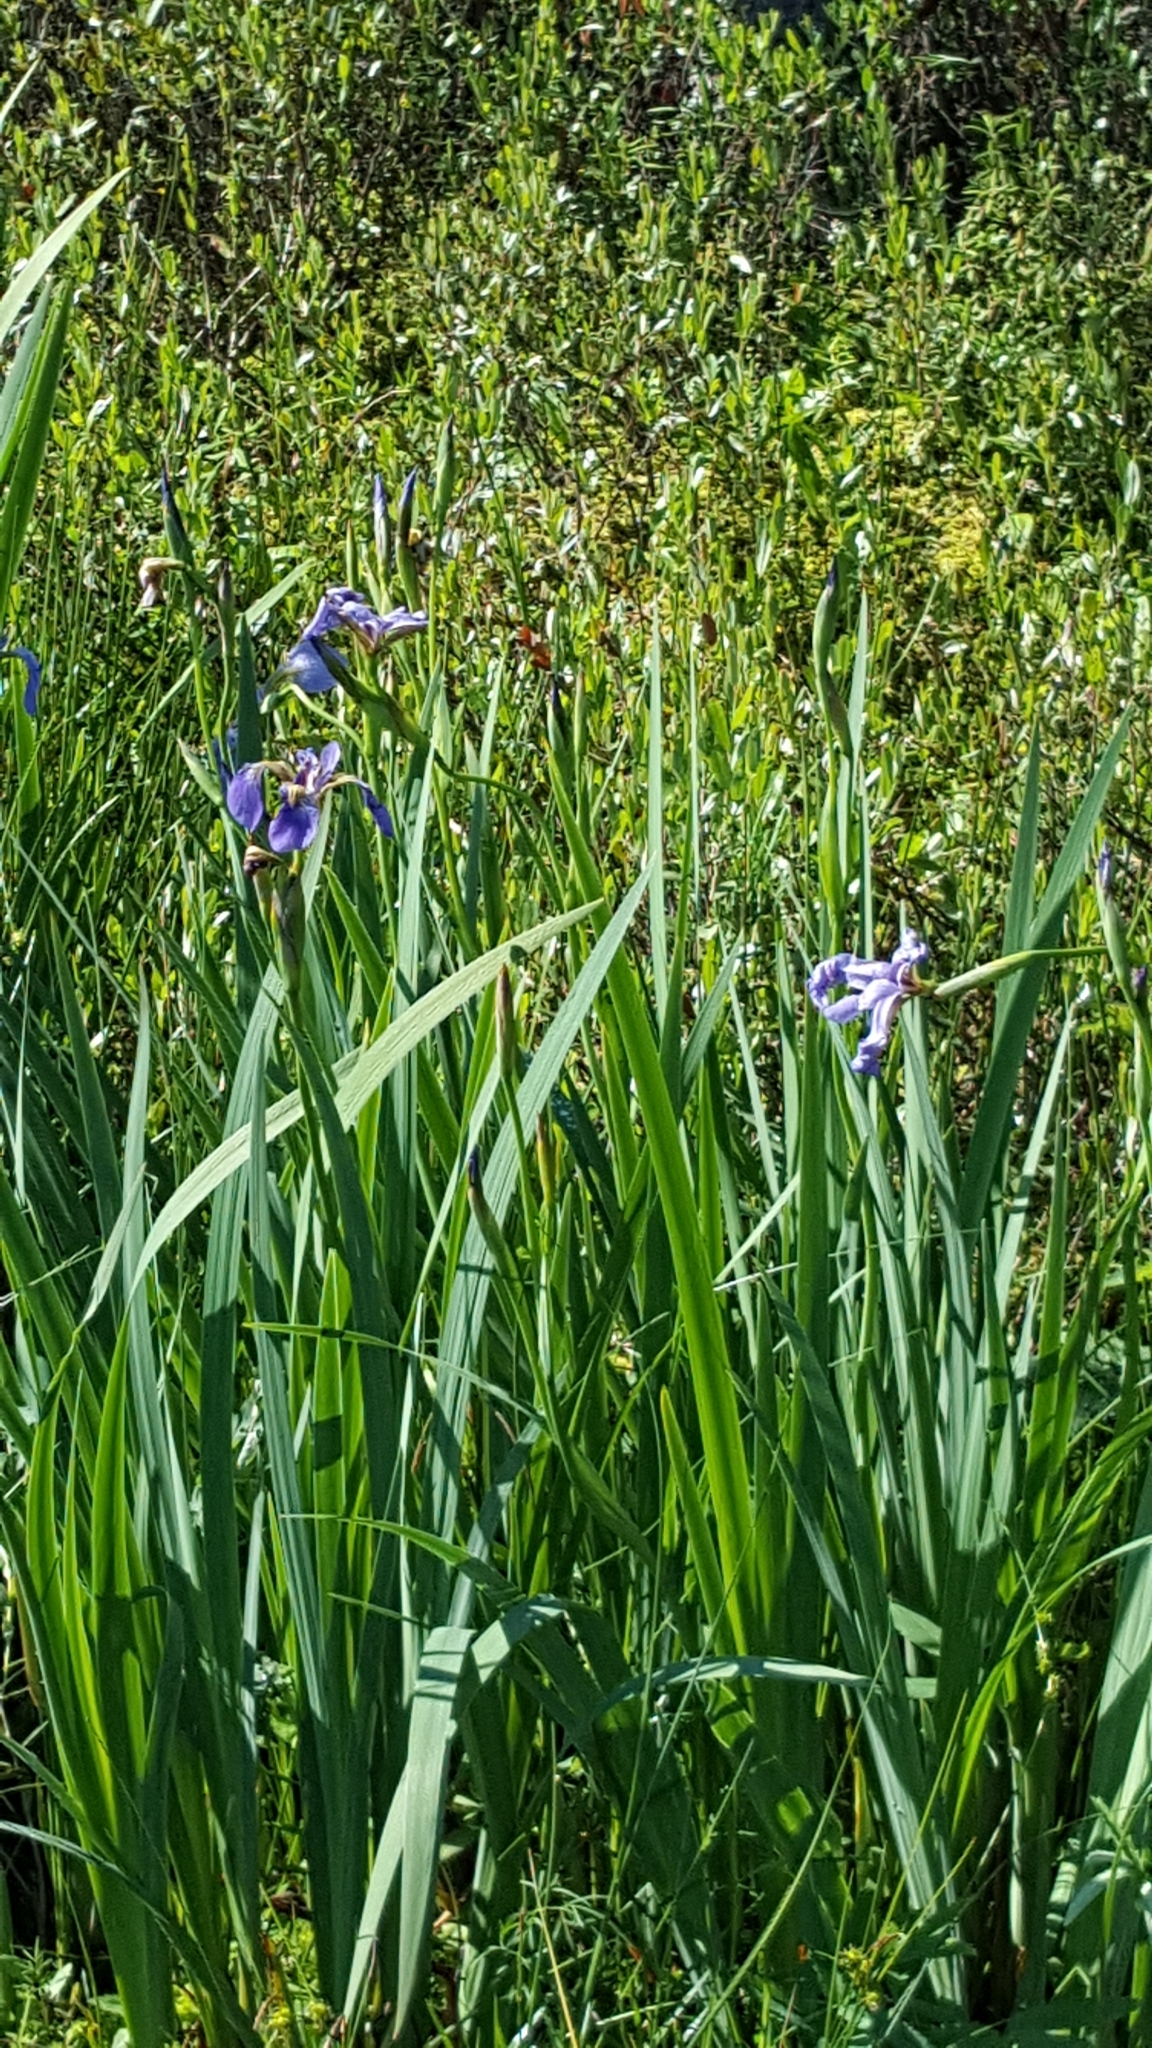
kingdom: Plantae
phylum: Tracheophyta
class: Liliopsida
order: Asparagales
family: Iridaceae
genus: Iris
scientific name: Iris versicolor
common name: Purple iris
